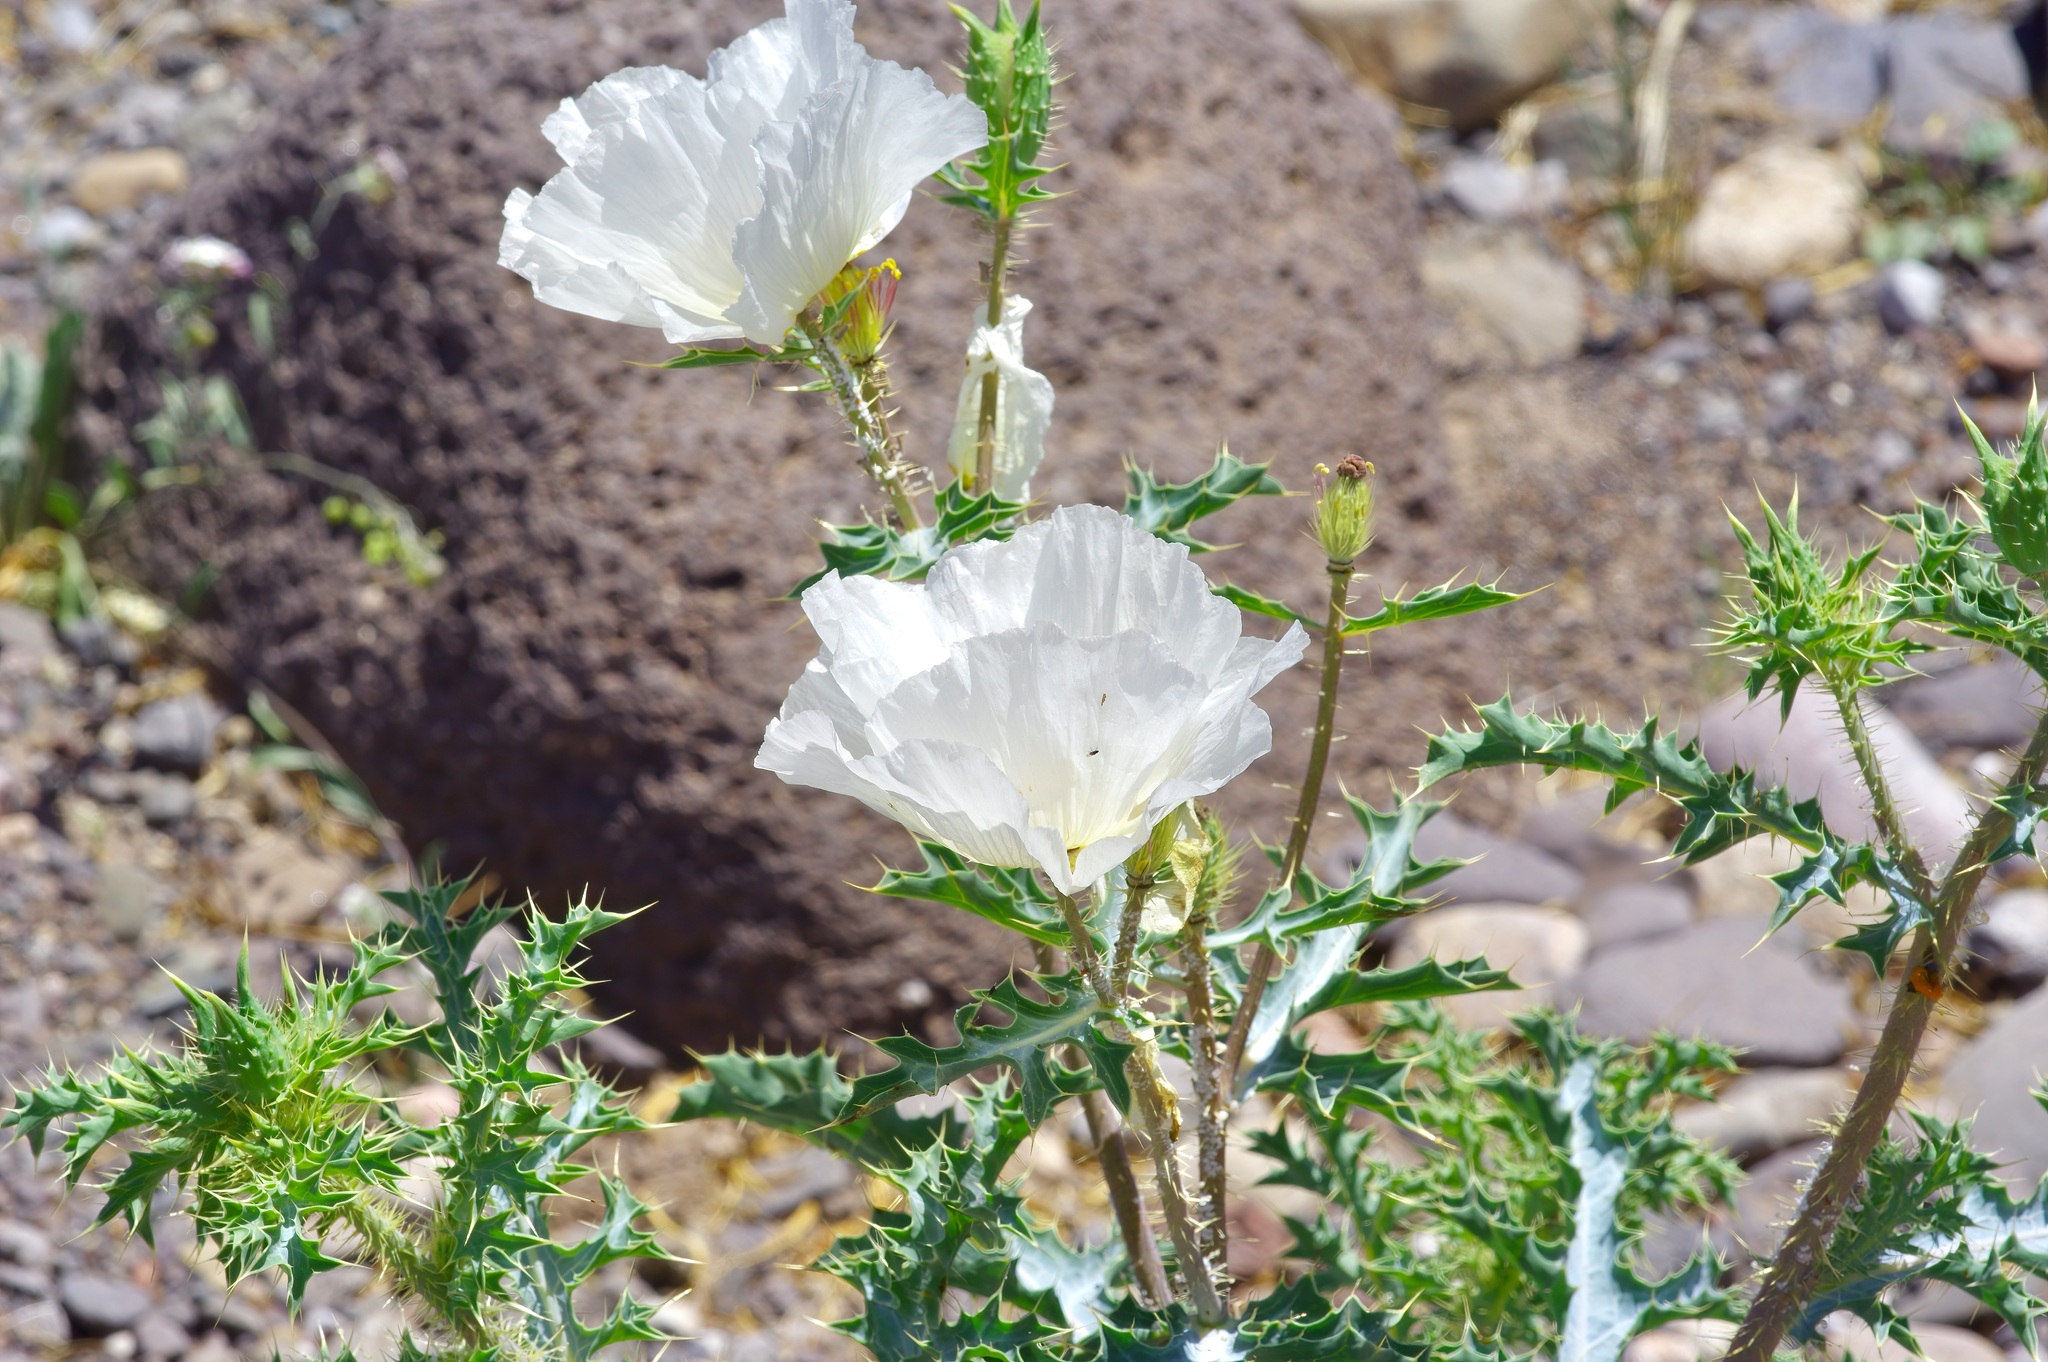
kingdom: Plantae
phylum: Tracheophyta
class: Magnoliopsida
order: Ranunculales
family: Papaveraceae
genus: Argemone
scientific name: Argemone chisosensis
